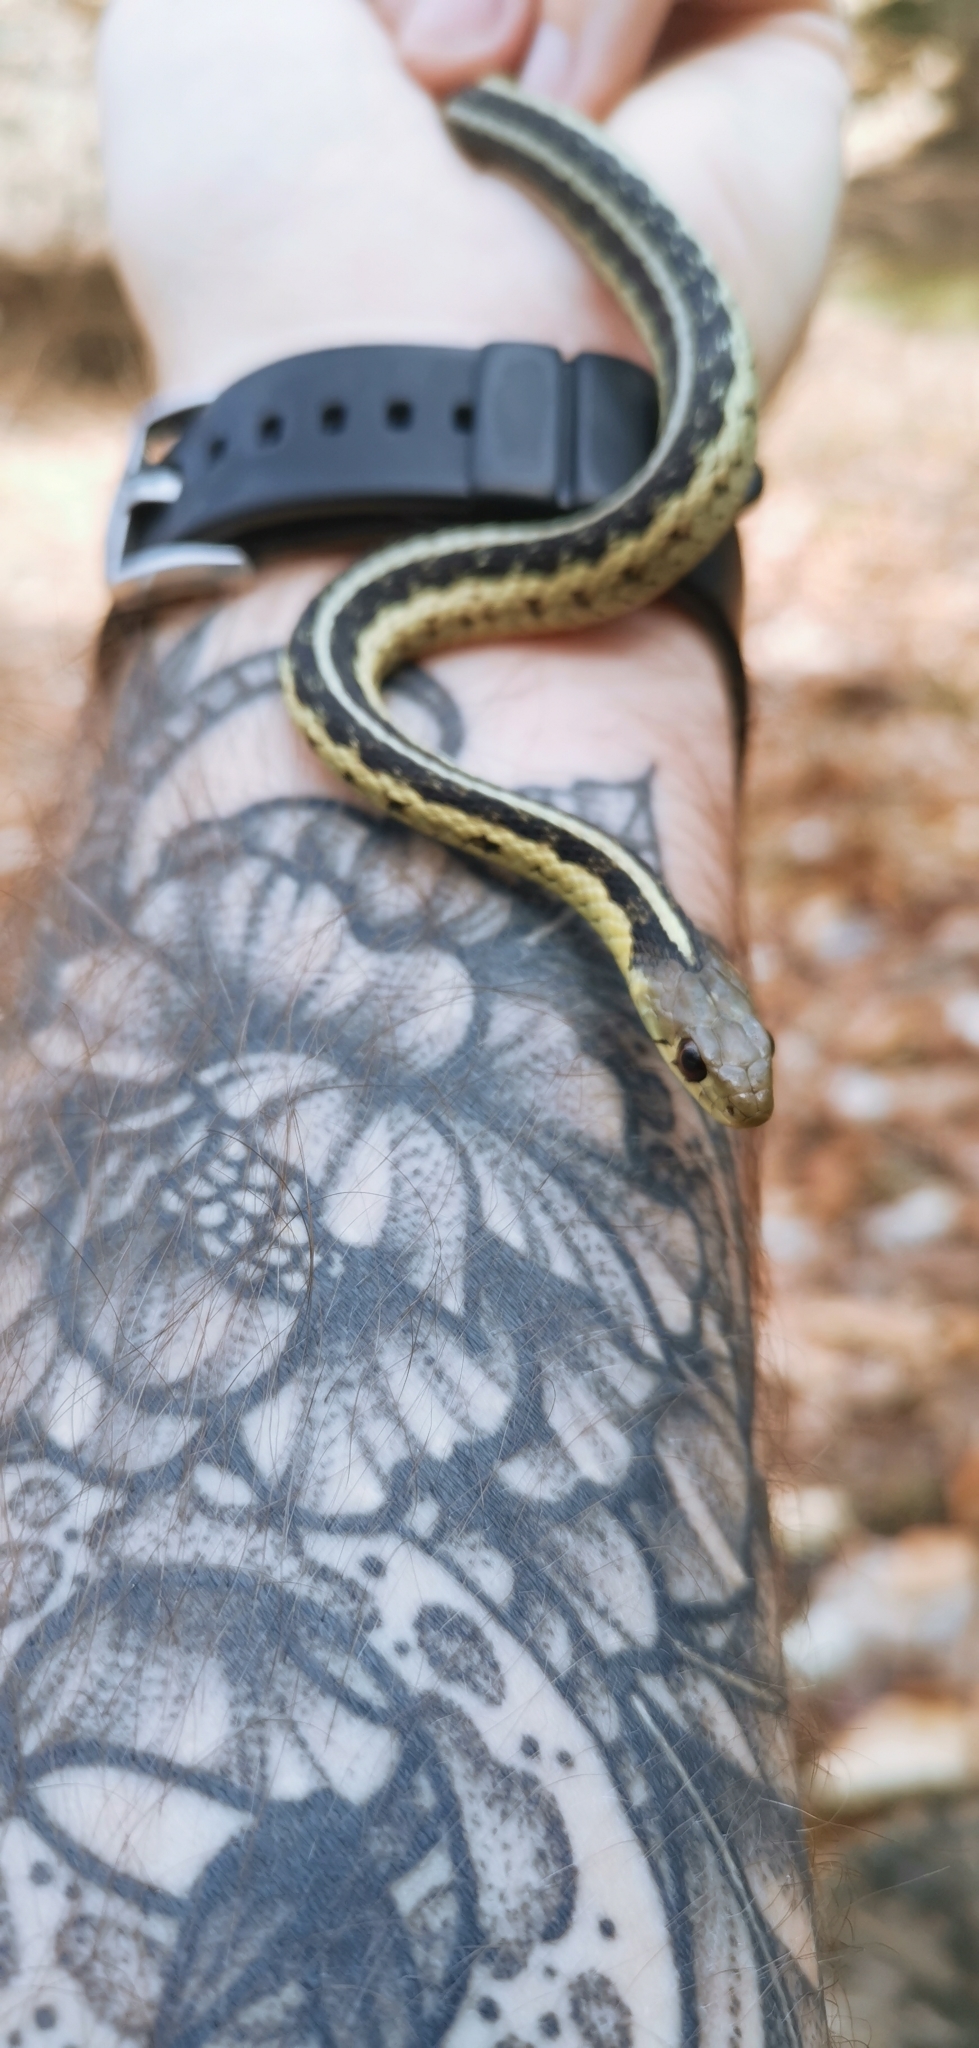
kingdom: Animalia
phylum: Chordata
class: Squamata
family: Colubridae
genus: Thamnophis
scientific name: Thamnophis sirtalis
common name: Common garter snake
